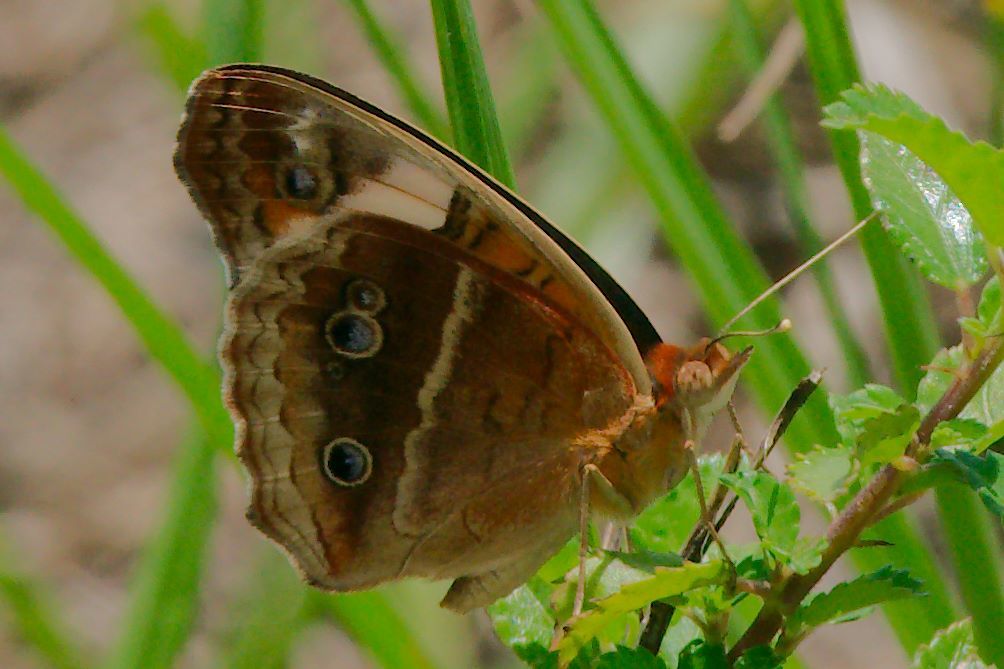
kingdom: Animalia
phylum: Arthropoda
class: Insecta
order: Lepidoptera
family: Nymphalidae
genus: Junonia
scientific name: Junonia lavinia
